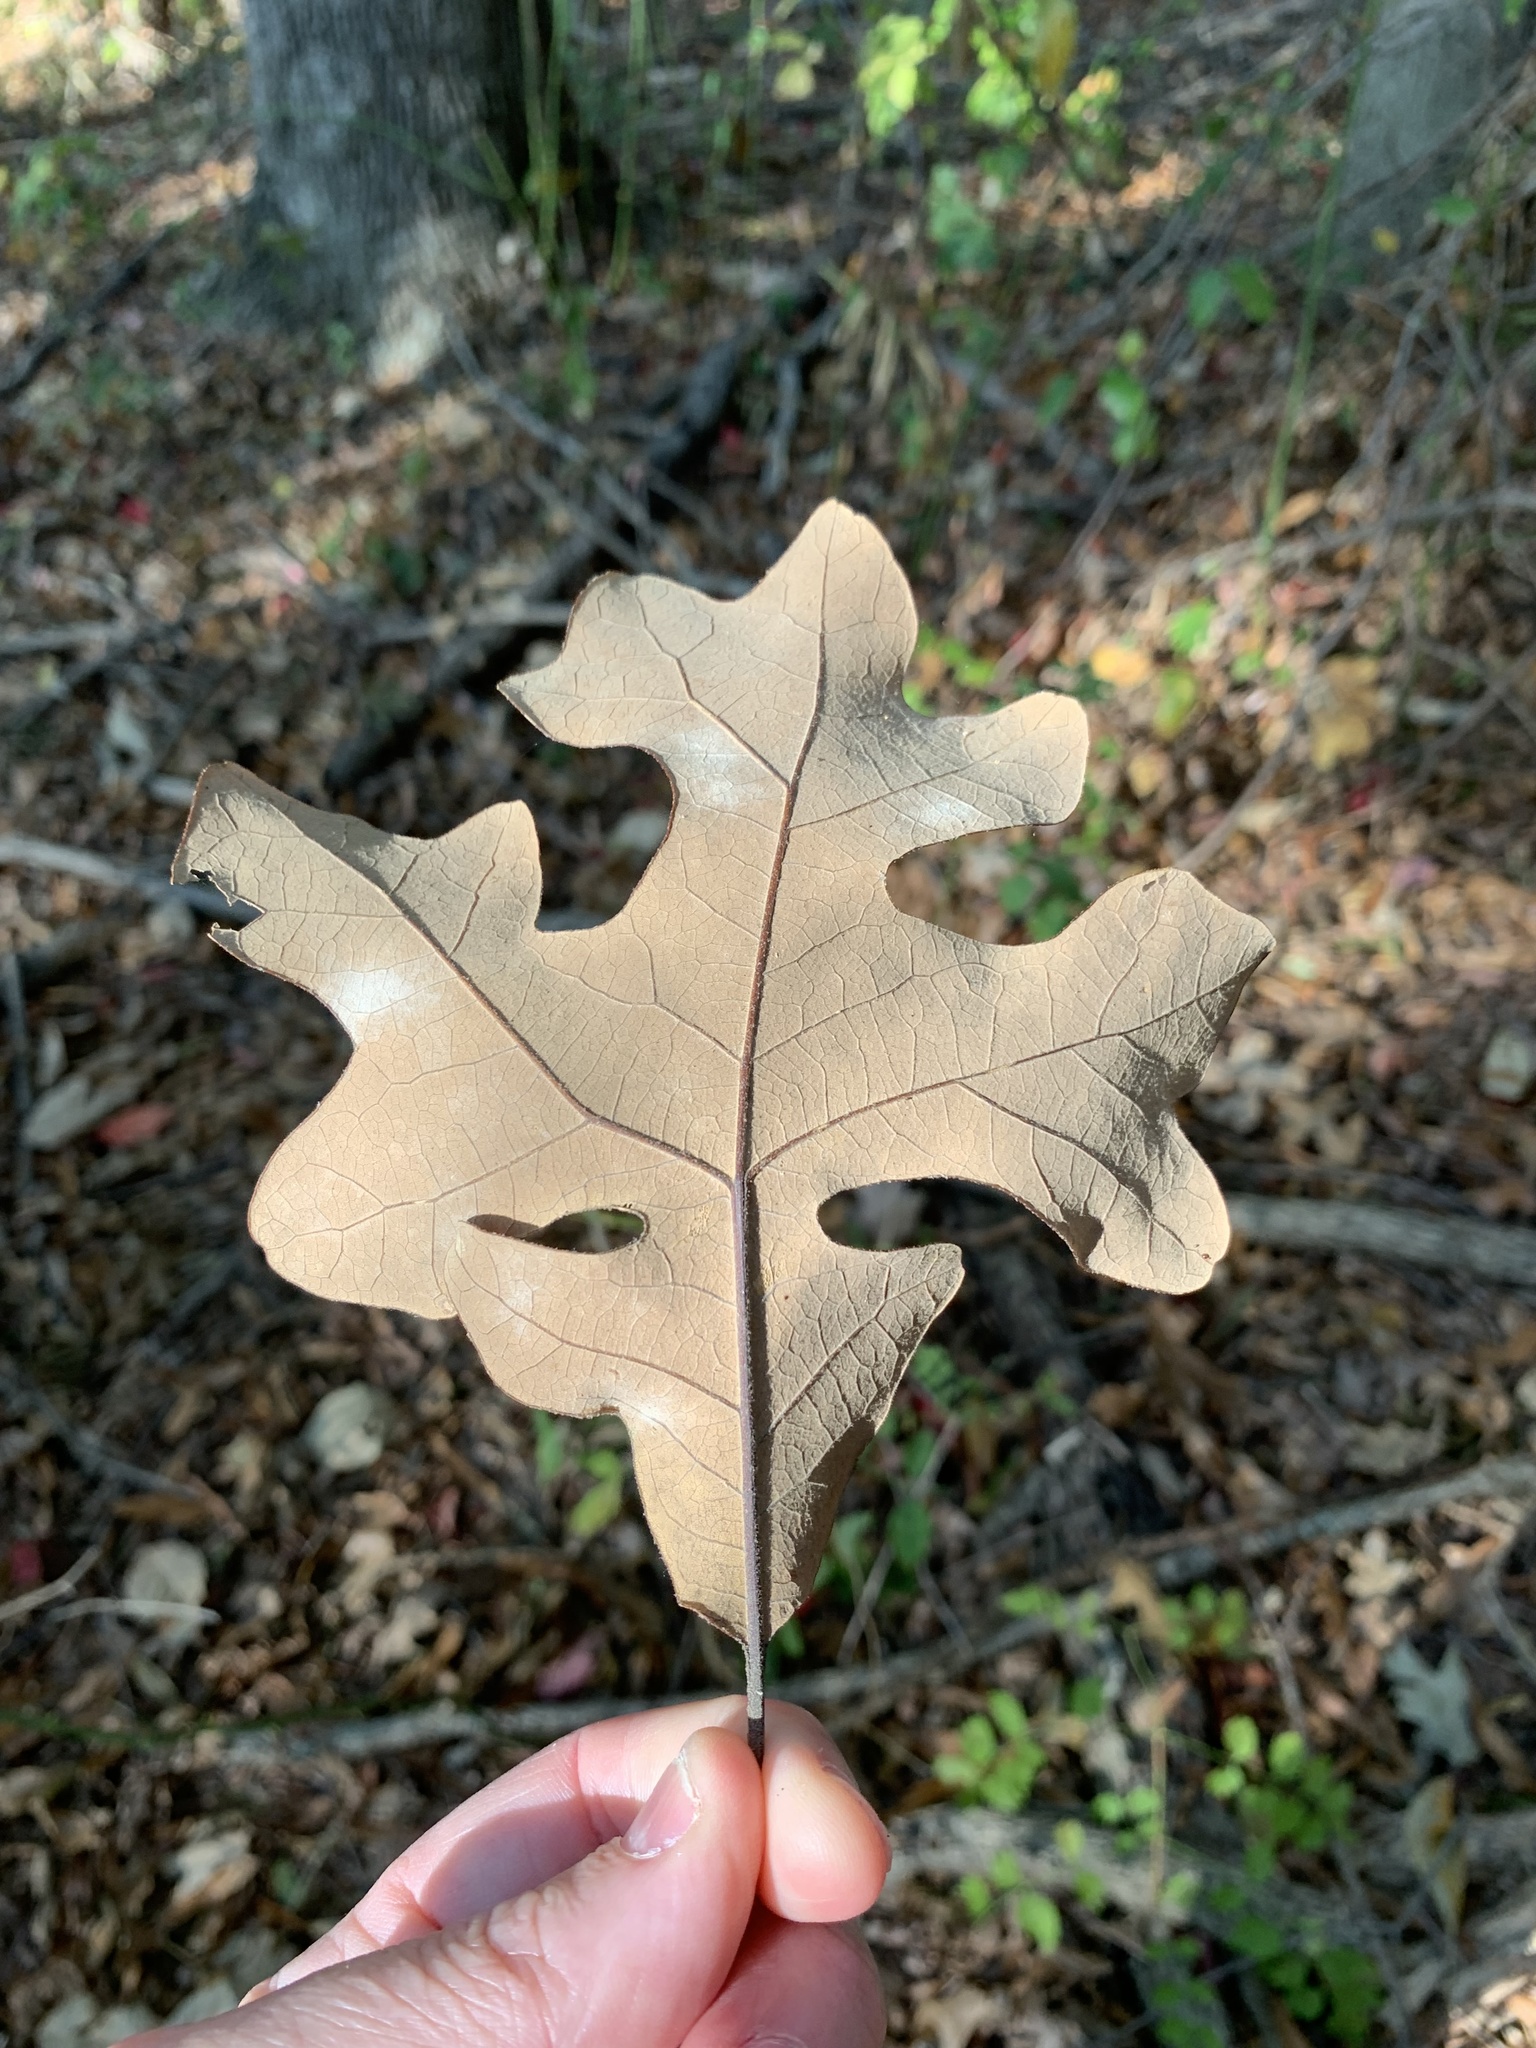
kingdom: Plantae
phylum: Tracheophyta
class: Magnoliopsida
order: Fagales
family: Fagaceae
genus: Quercus
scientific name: Quercus stellata
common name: Post oak
